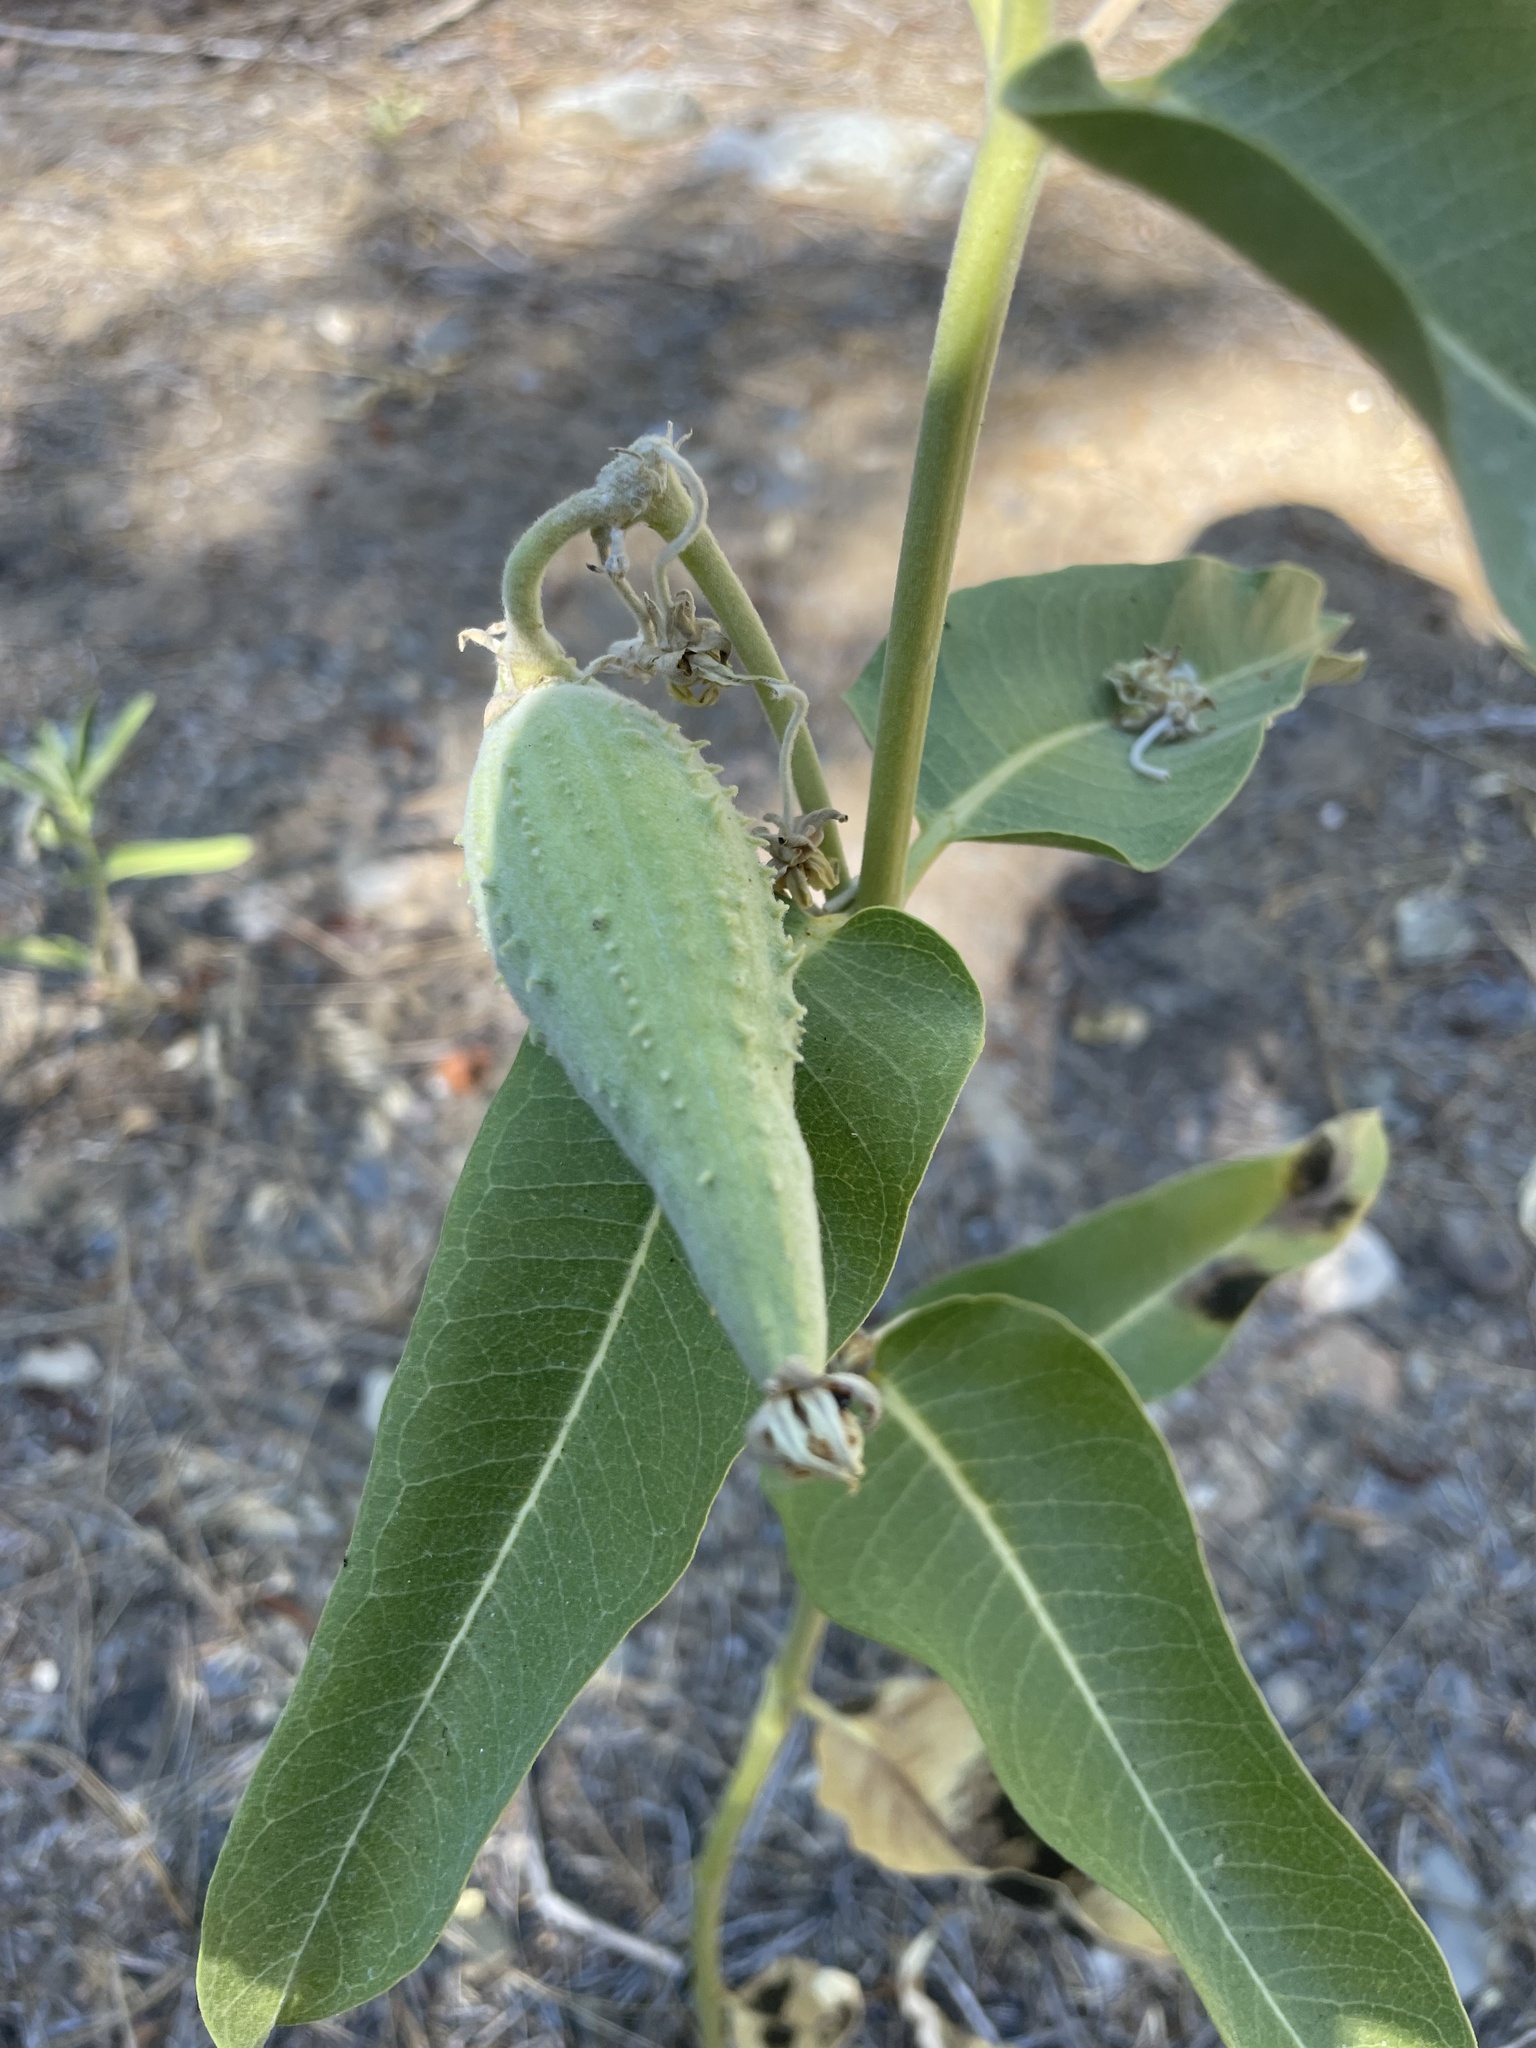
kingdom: Plantae
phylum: Tracheophyta
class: Magnoliopsida
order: Gentianales
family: Apocynaceae
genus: Asclepias
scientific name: Asclepias speciosa
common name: Showy milkweed
